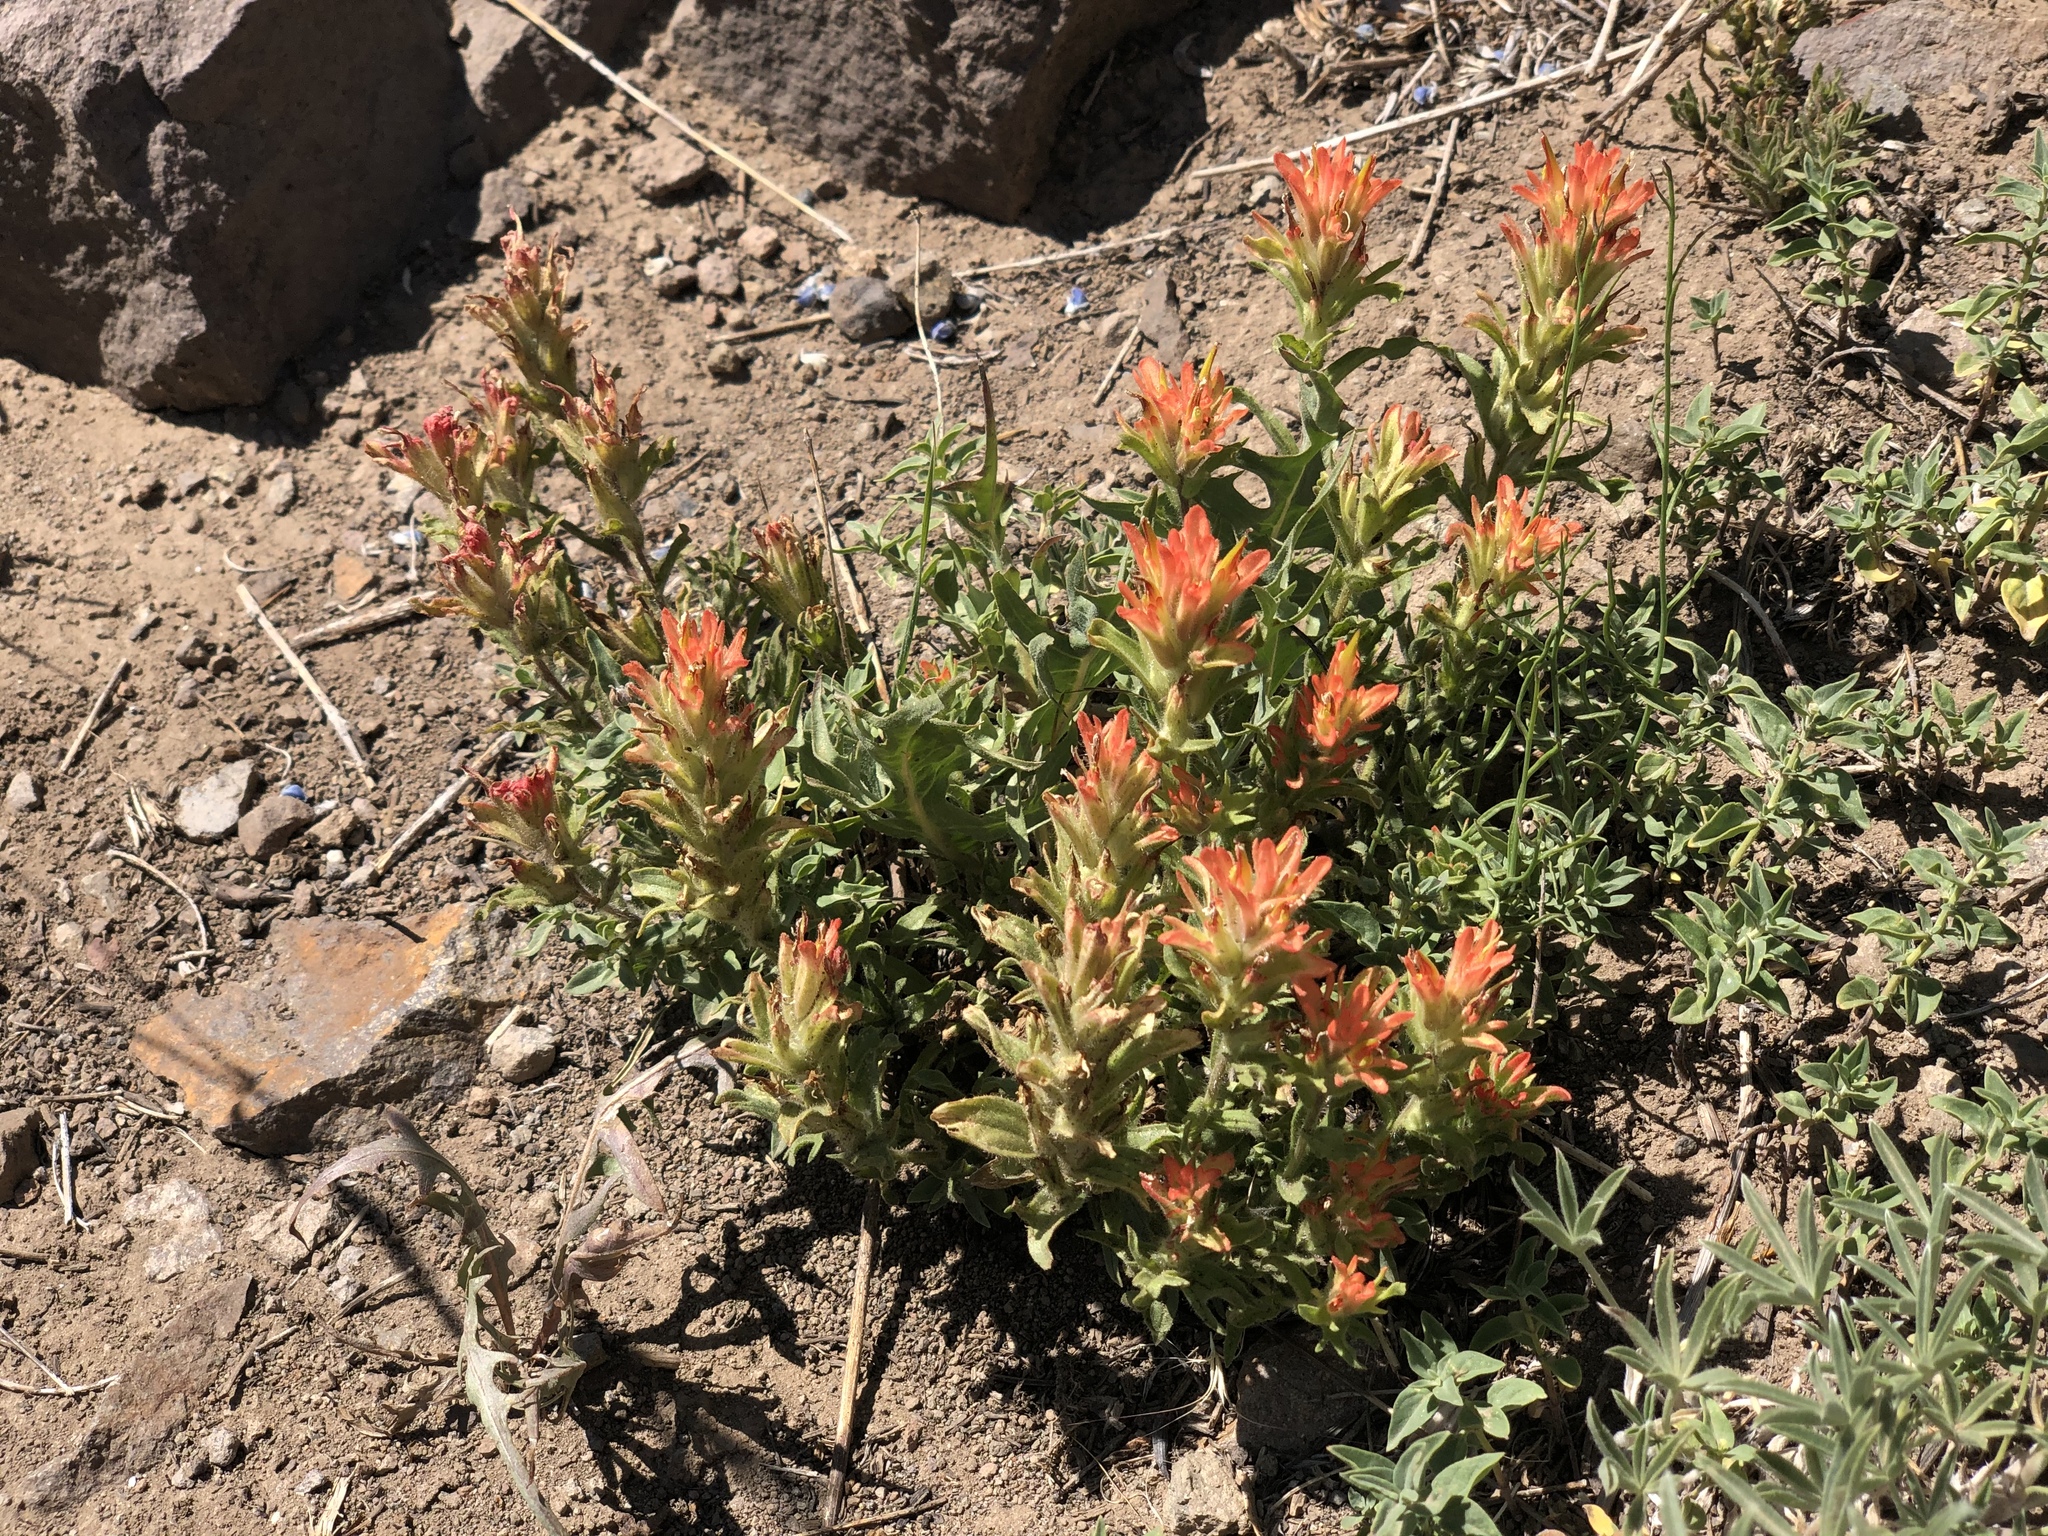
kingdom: Plantae
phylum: Tracheophyta
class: Magnoliopsida
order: Lamiales
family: Orobanchaceae
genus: Castilleja
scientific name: Castilleja applegatei
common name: Wavy-leaf paintbrush
